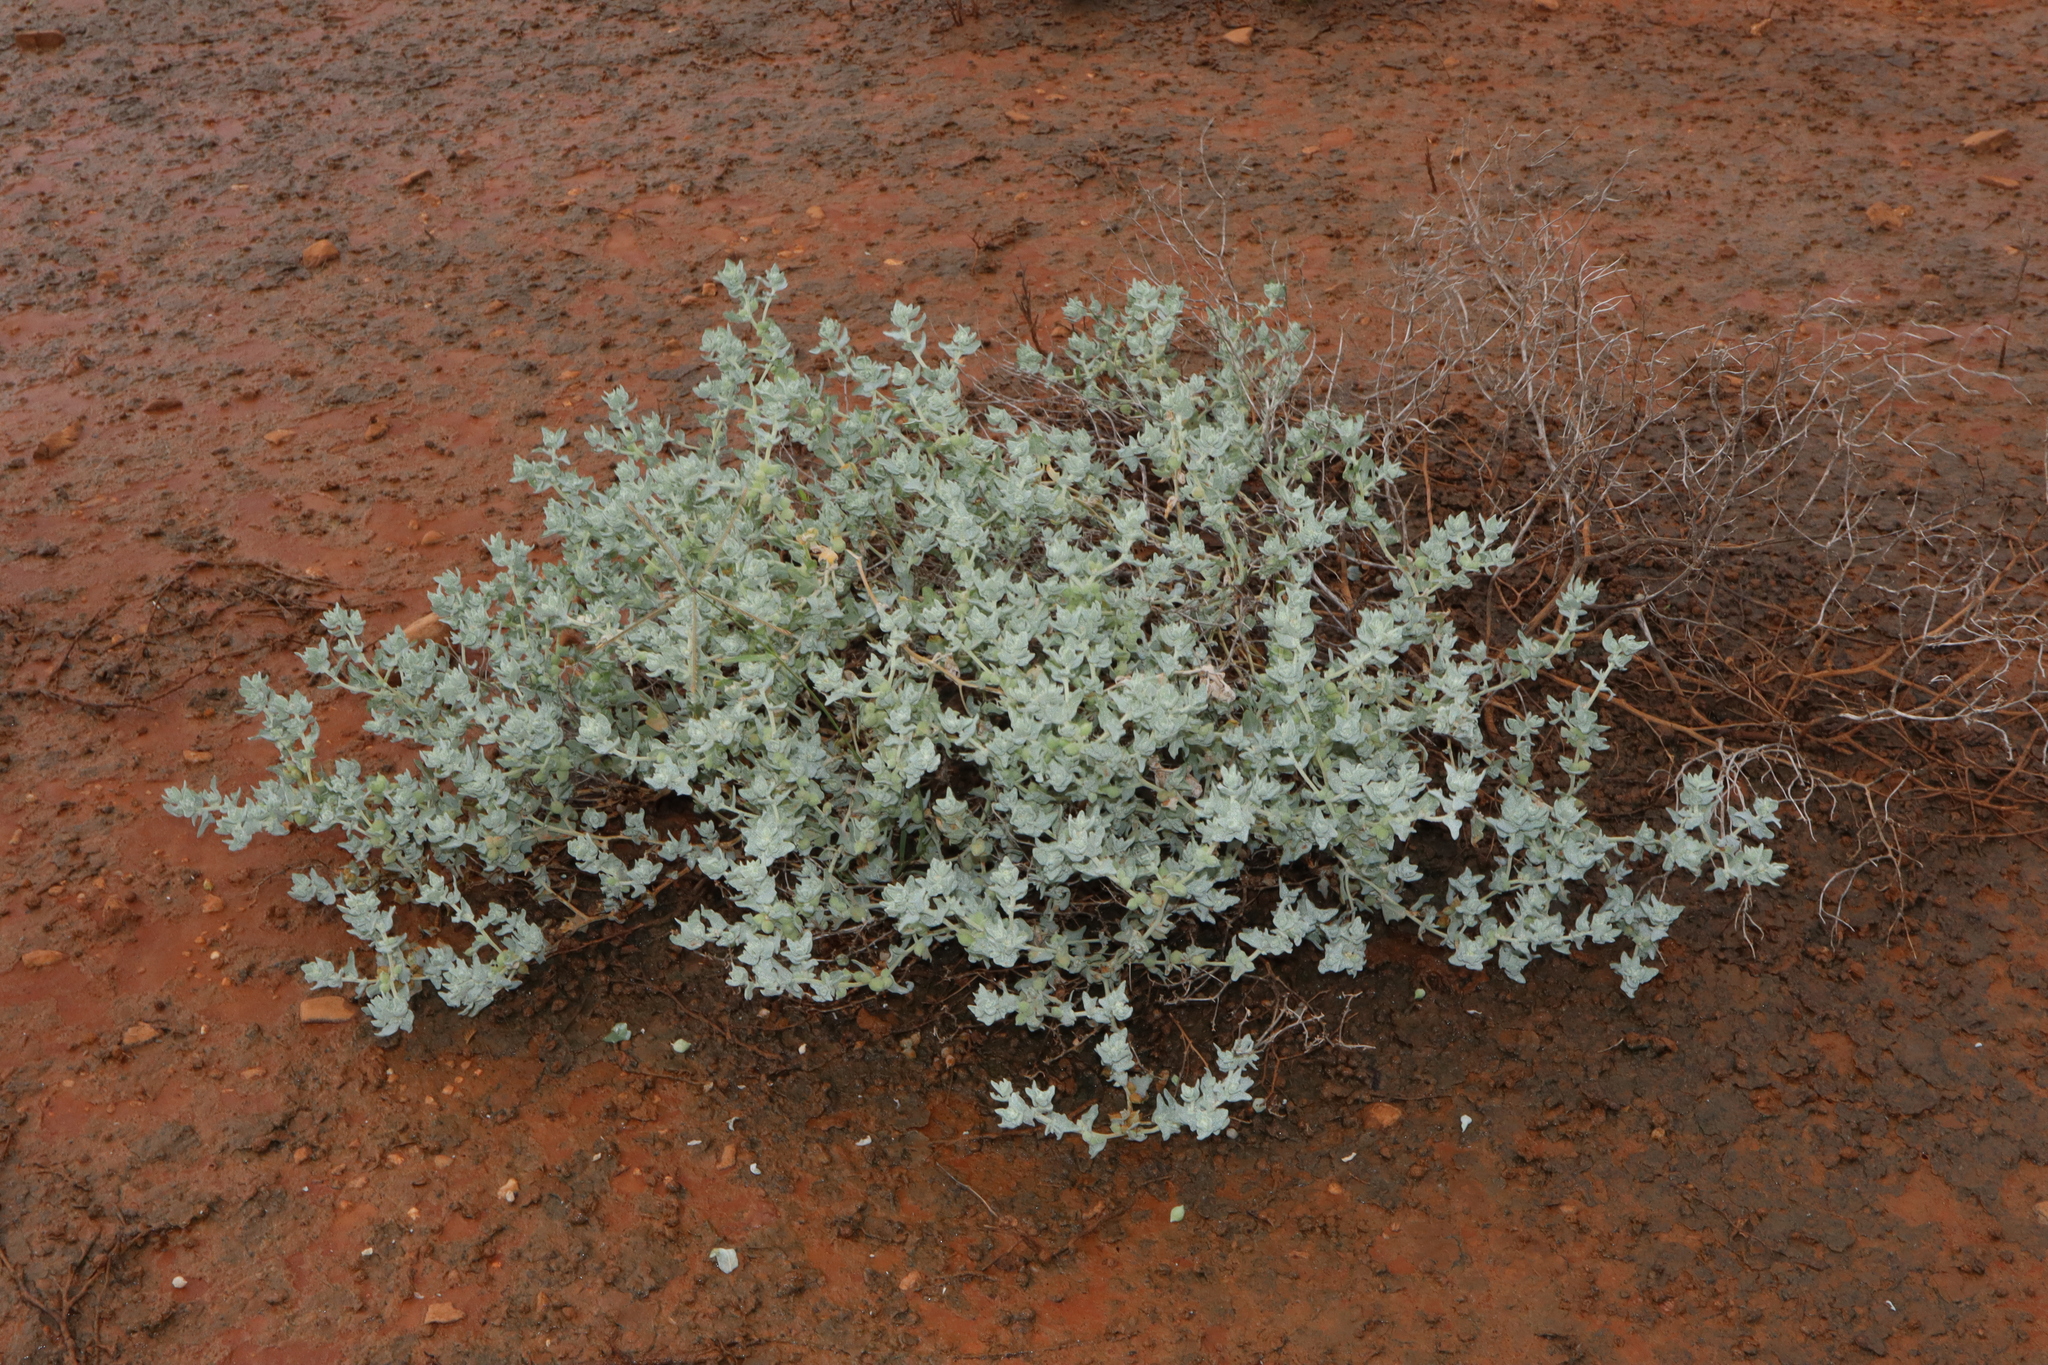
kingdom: Plantae
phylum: Tracheophyta
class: Magnoliopsida
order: Caryophyllales
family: Amaranthaceae
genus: Atriplex
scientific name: Atriplex holocarpa
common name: Pop saltbush
